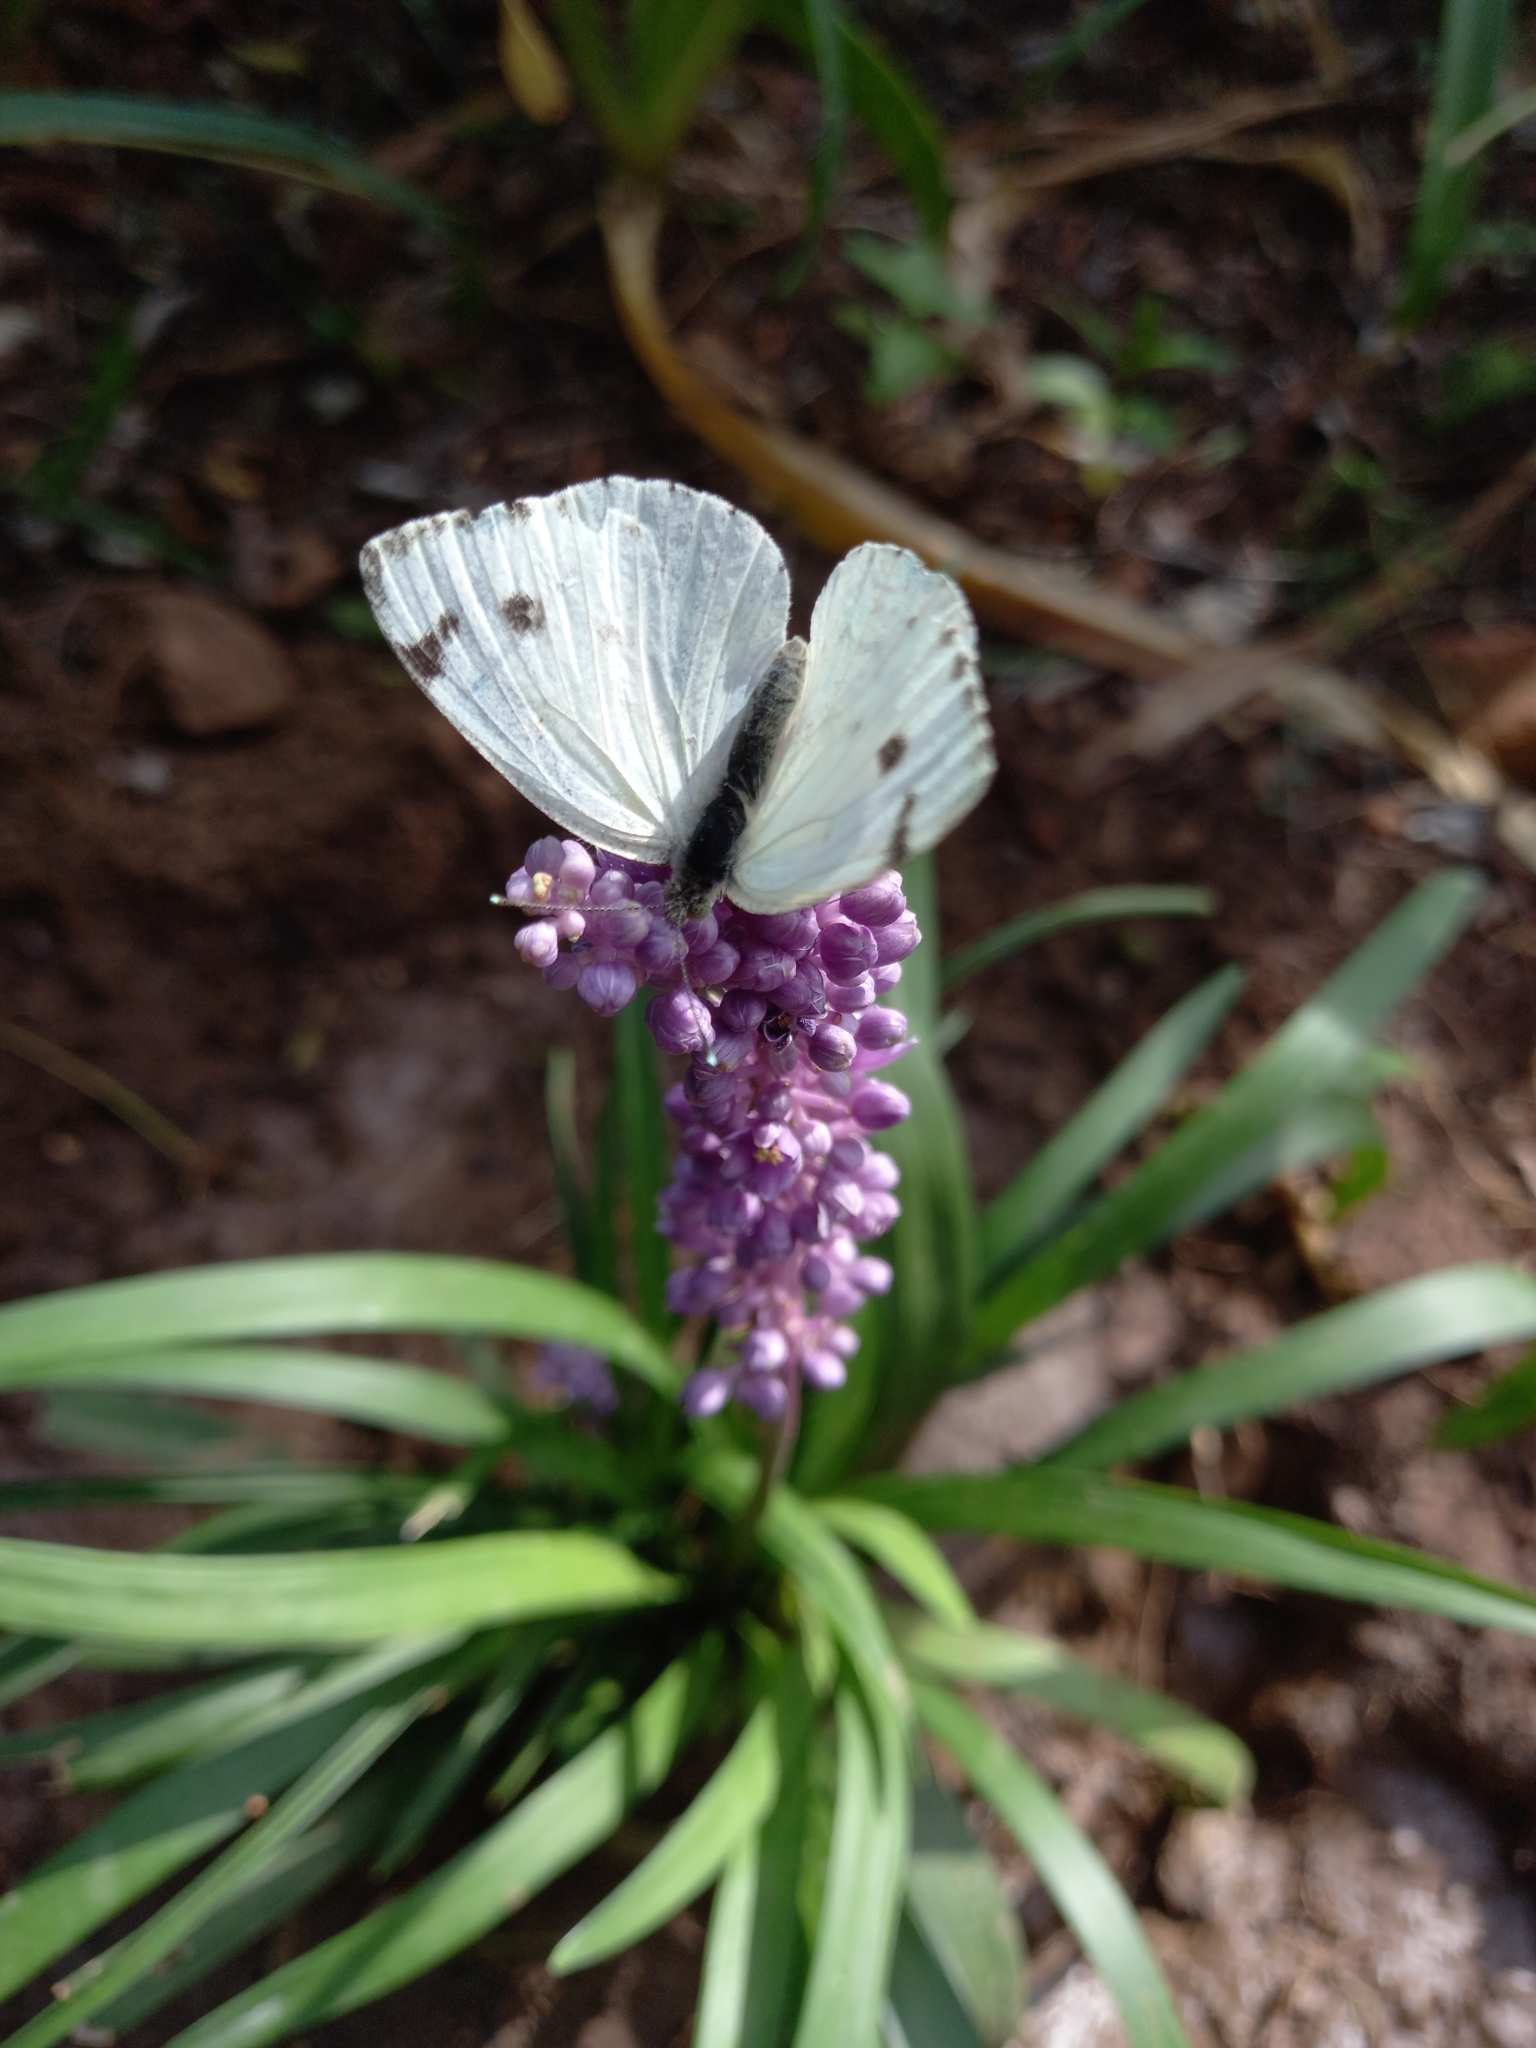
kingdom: Animalia
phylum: Arthropoda
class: Insecta
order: Lepidoptera
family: Pieridae
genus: Dixeia
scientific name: Dixeia charina
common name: African small white
